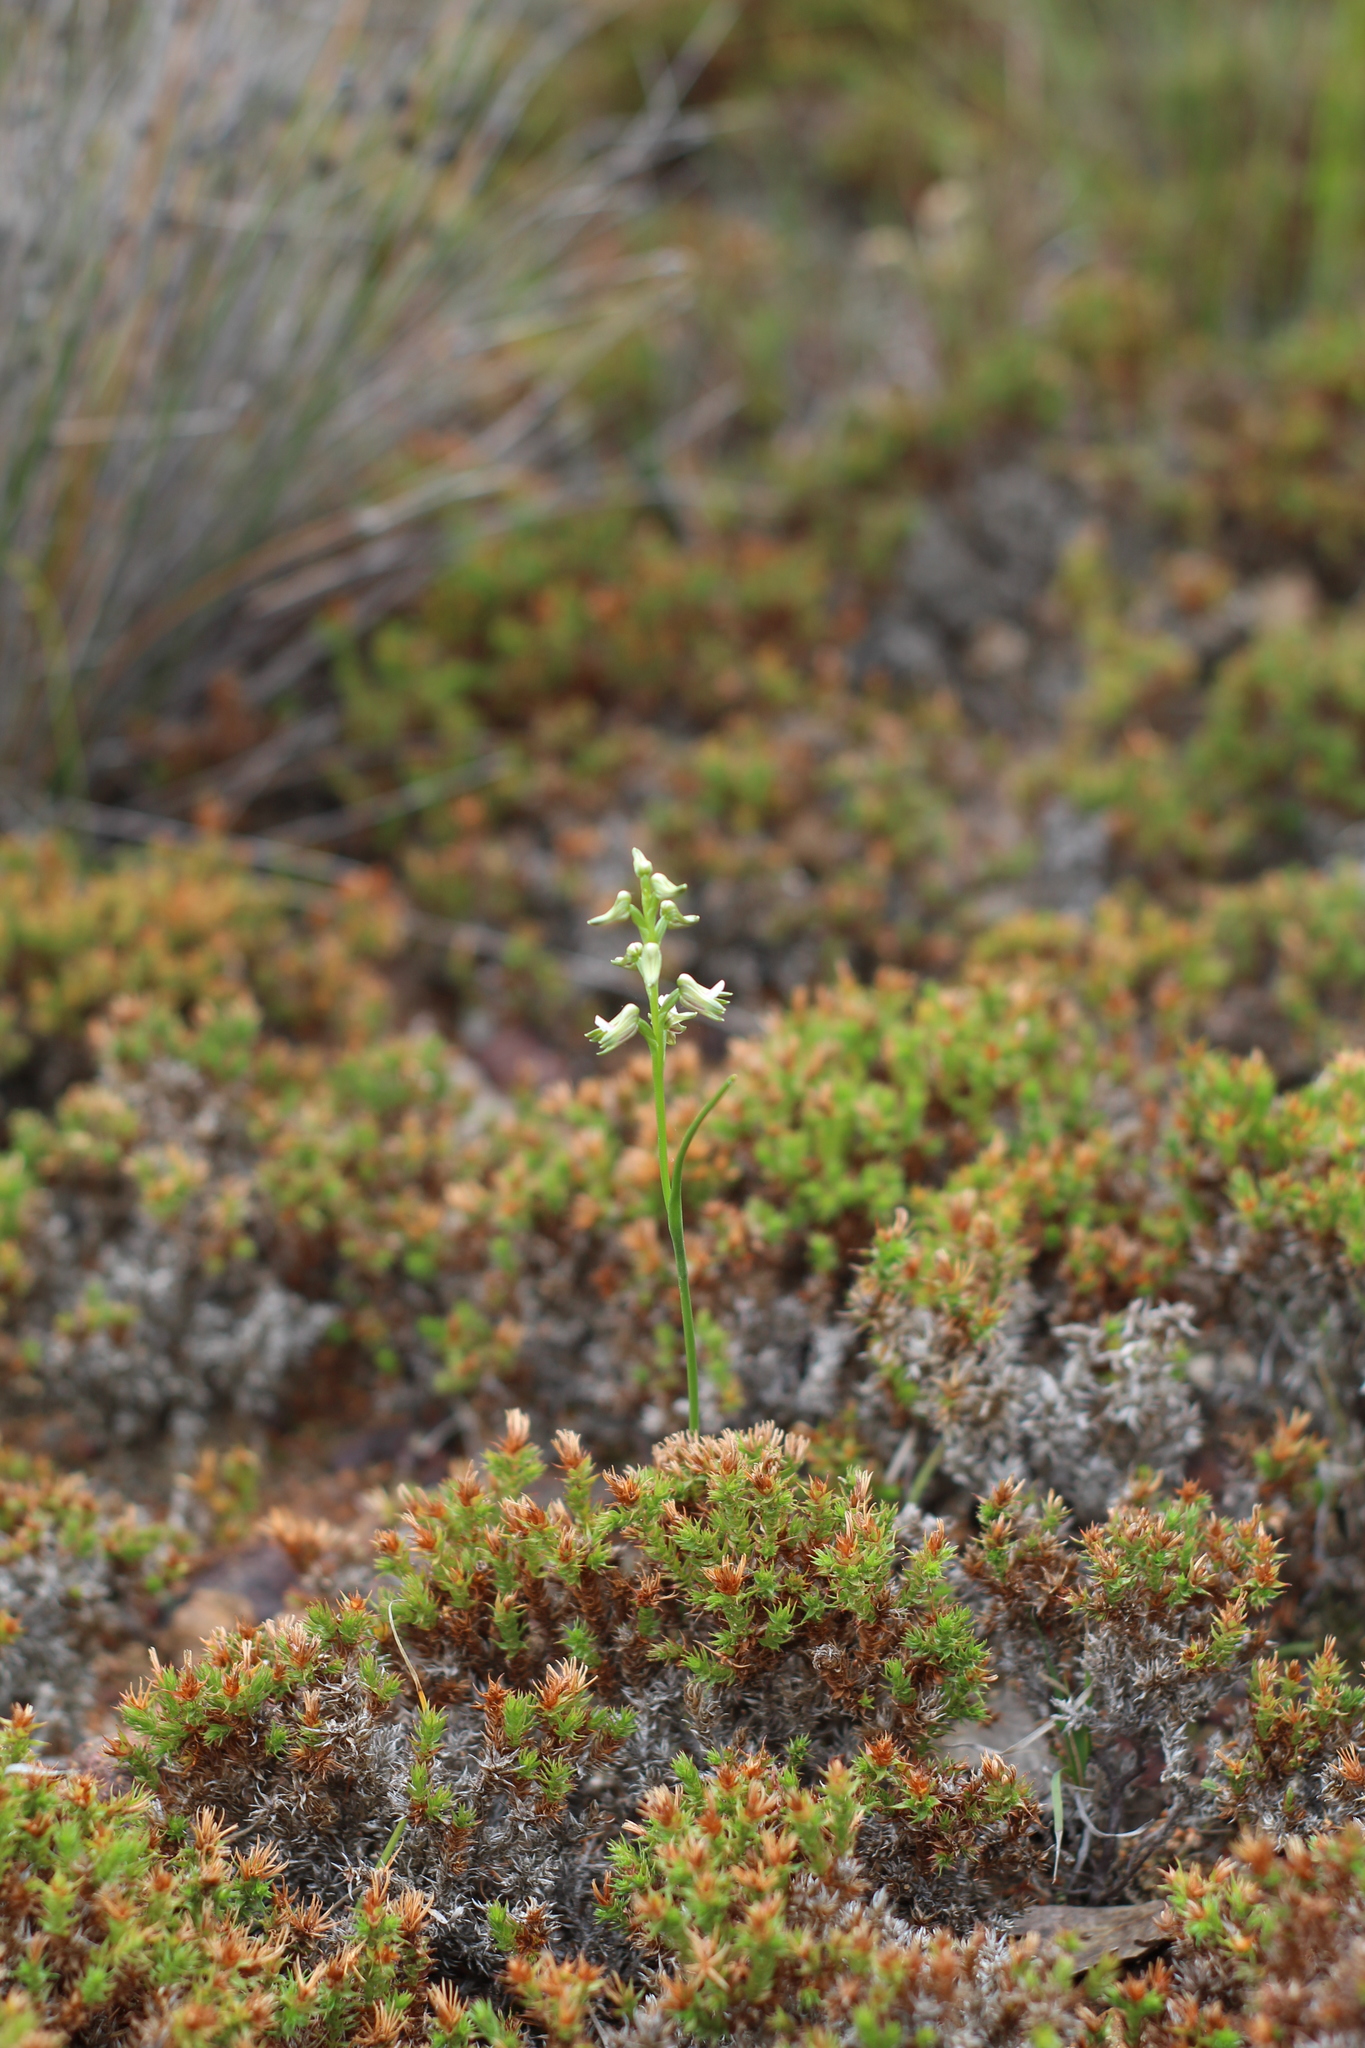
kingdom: Plantae
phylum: Tracheophyta
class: Liliopsida
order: Asparagales
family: Orchidaceae
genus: Prasophyllum
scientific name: Prasophyllum parvifolium
